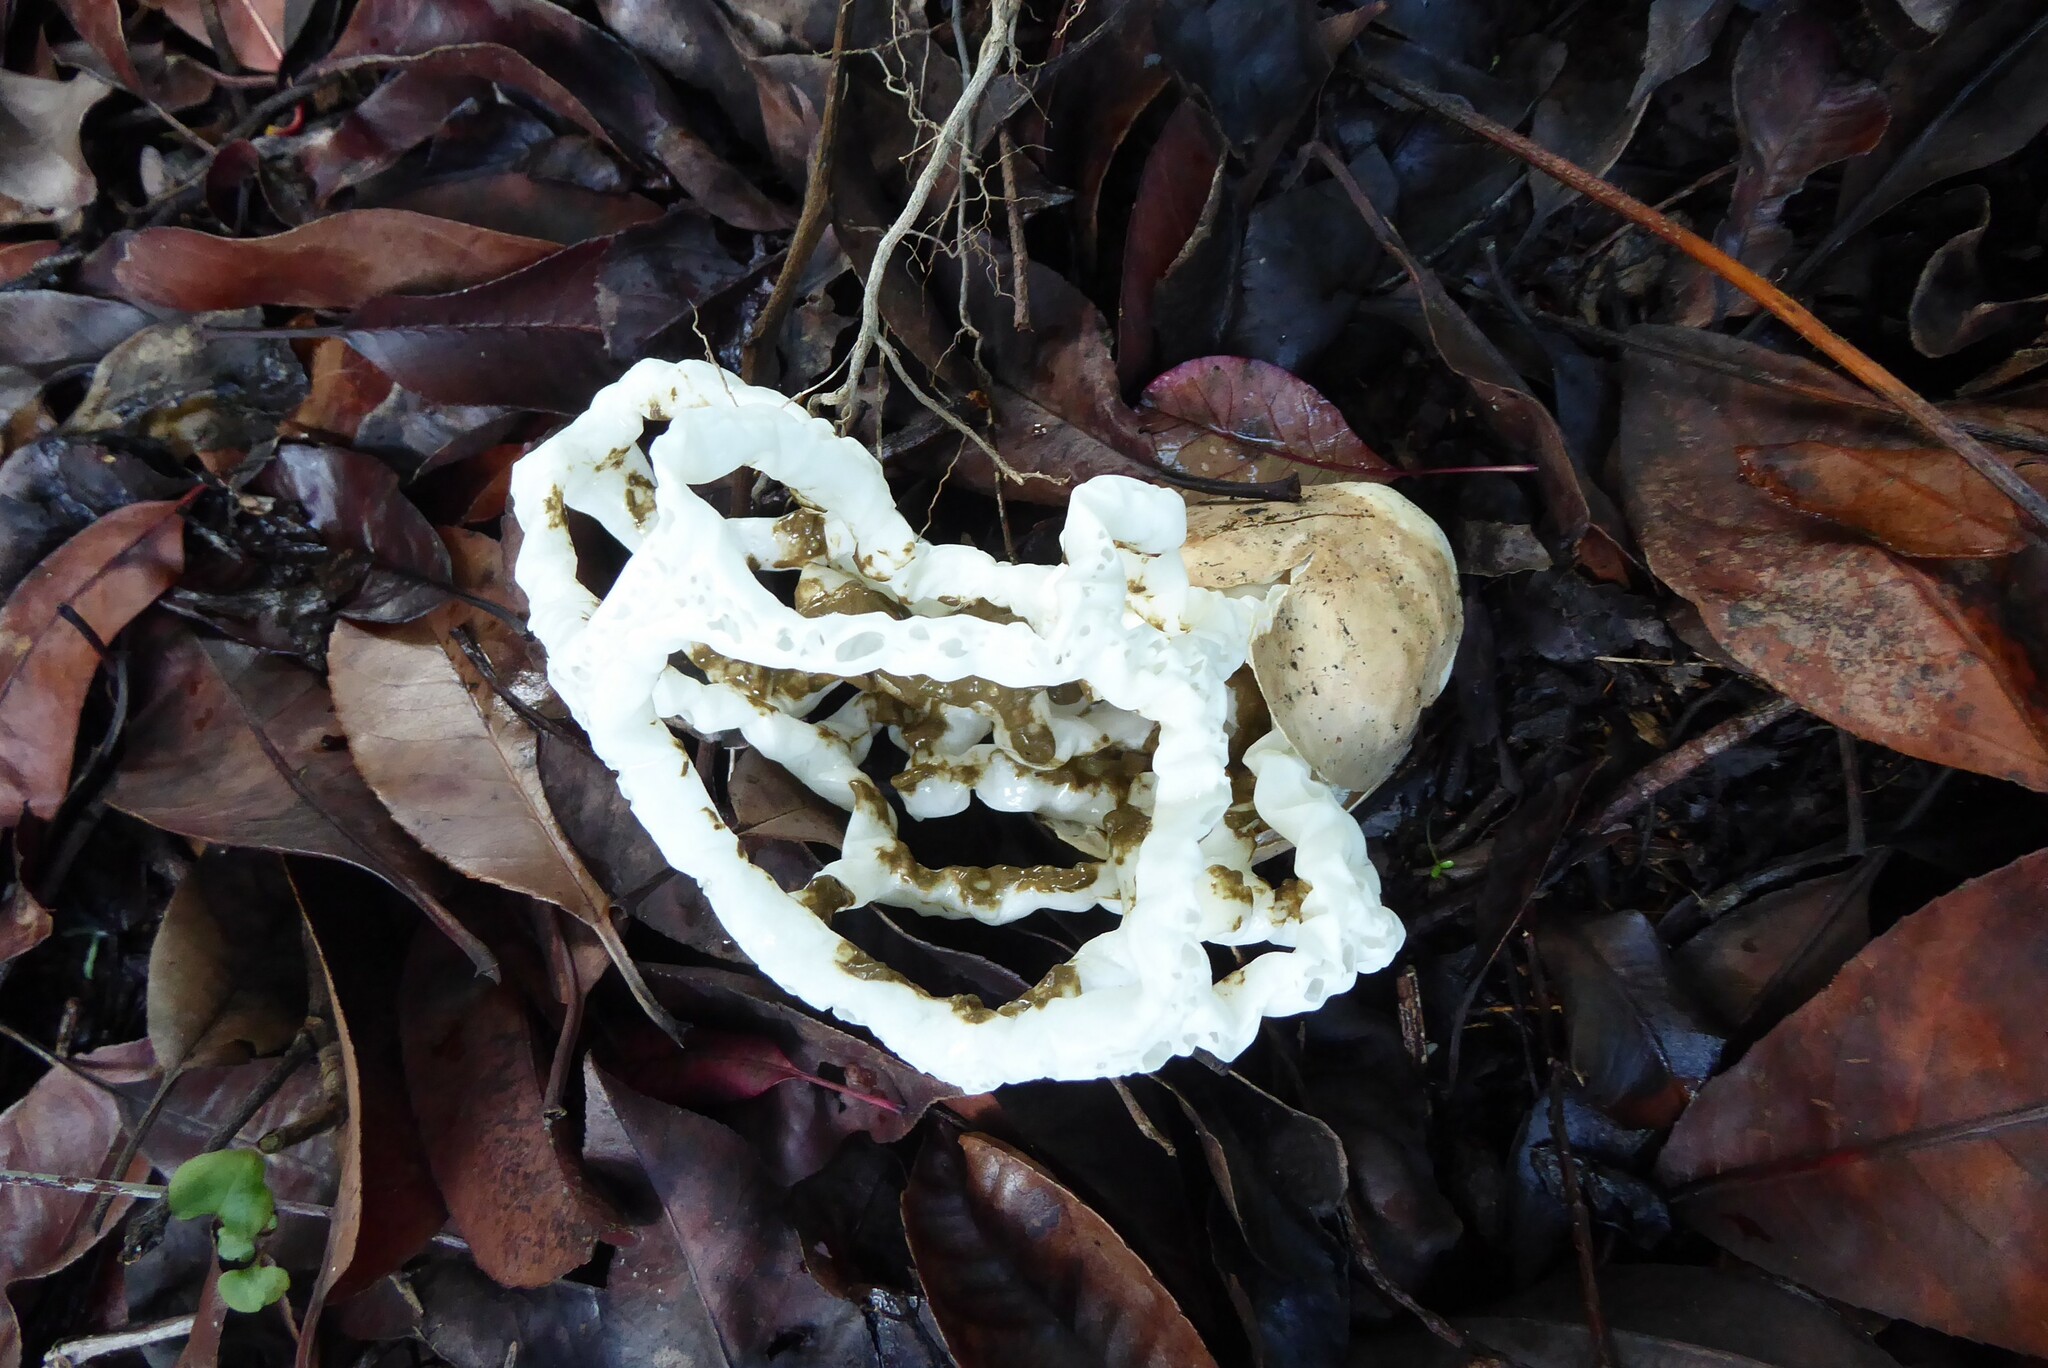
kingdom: Fungi
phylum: Basidiomycota
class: Agaricomycetes
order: Phallales
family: Phallaceae
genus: Ileodictyon
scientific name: Ileodictyon cibarium
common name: Basket fungus
